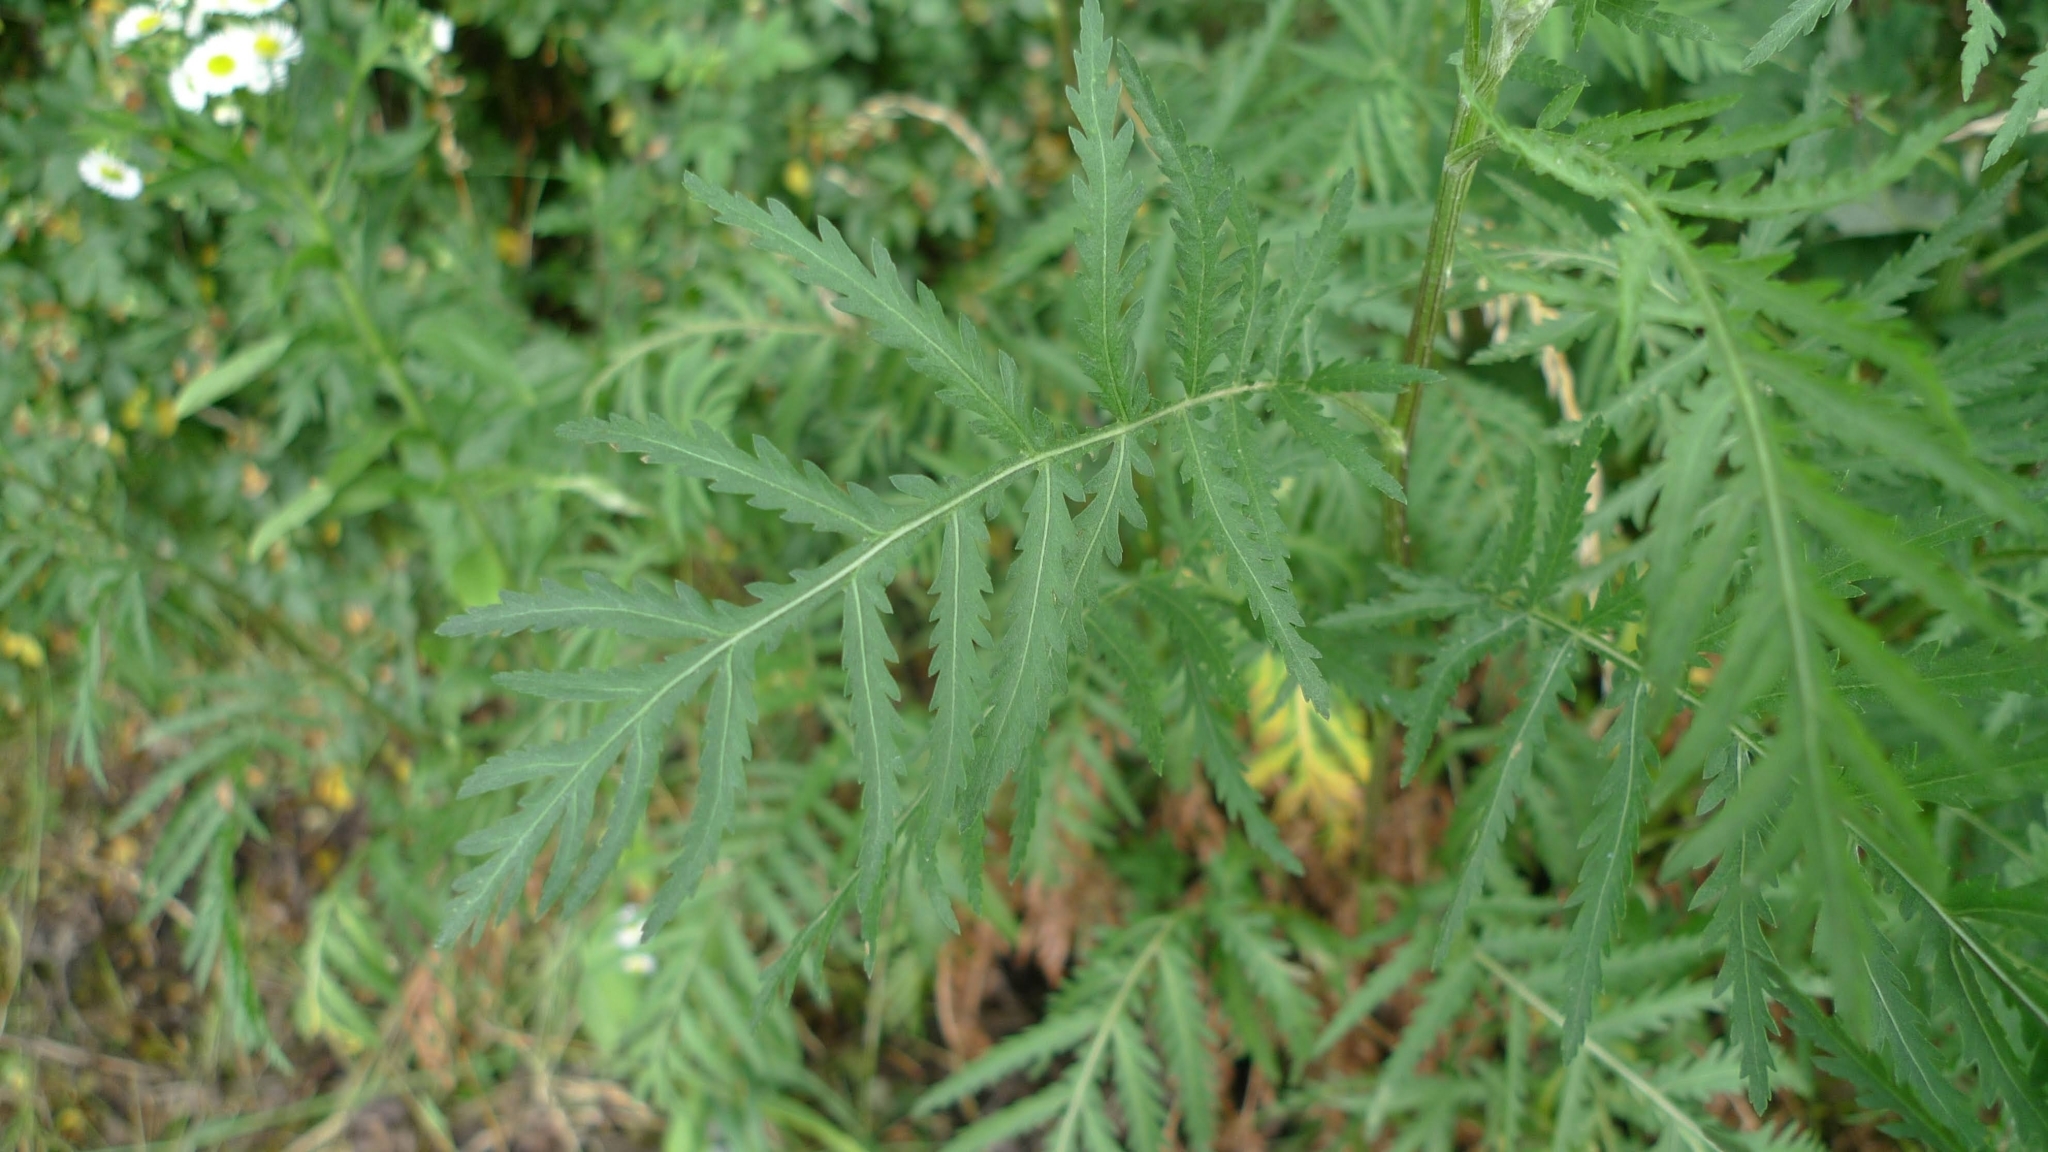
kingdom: Plantae
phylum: Tracheophyta
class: Magnoliopsida
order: Asterales
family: Asteraceae
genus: Tanacetum
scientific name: Tanacetum vulgare
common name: Common tansy
